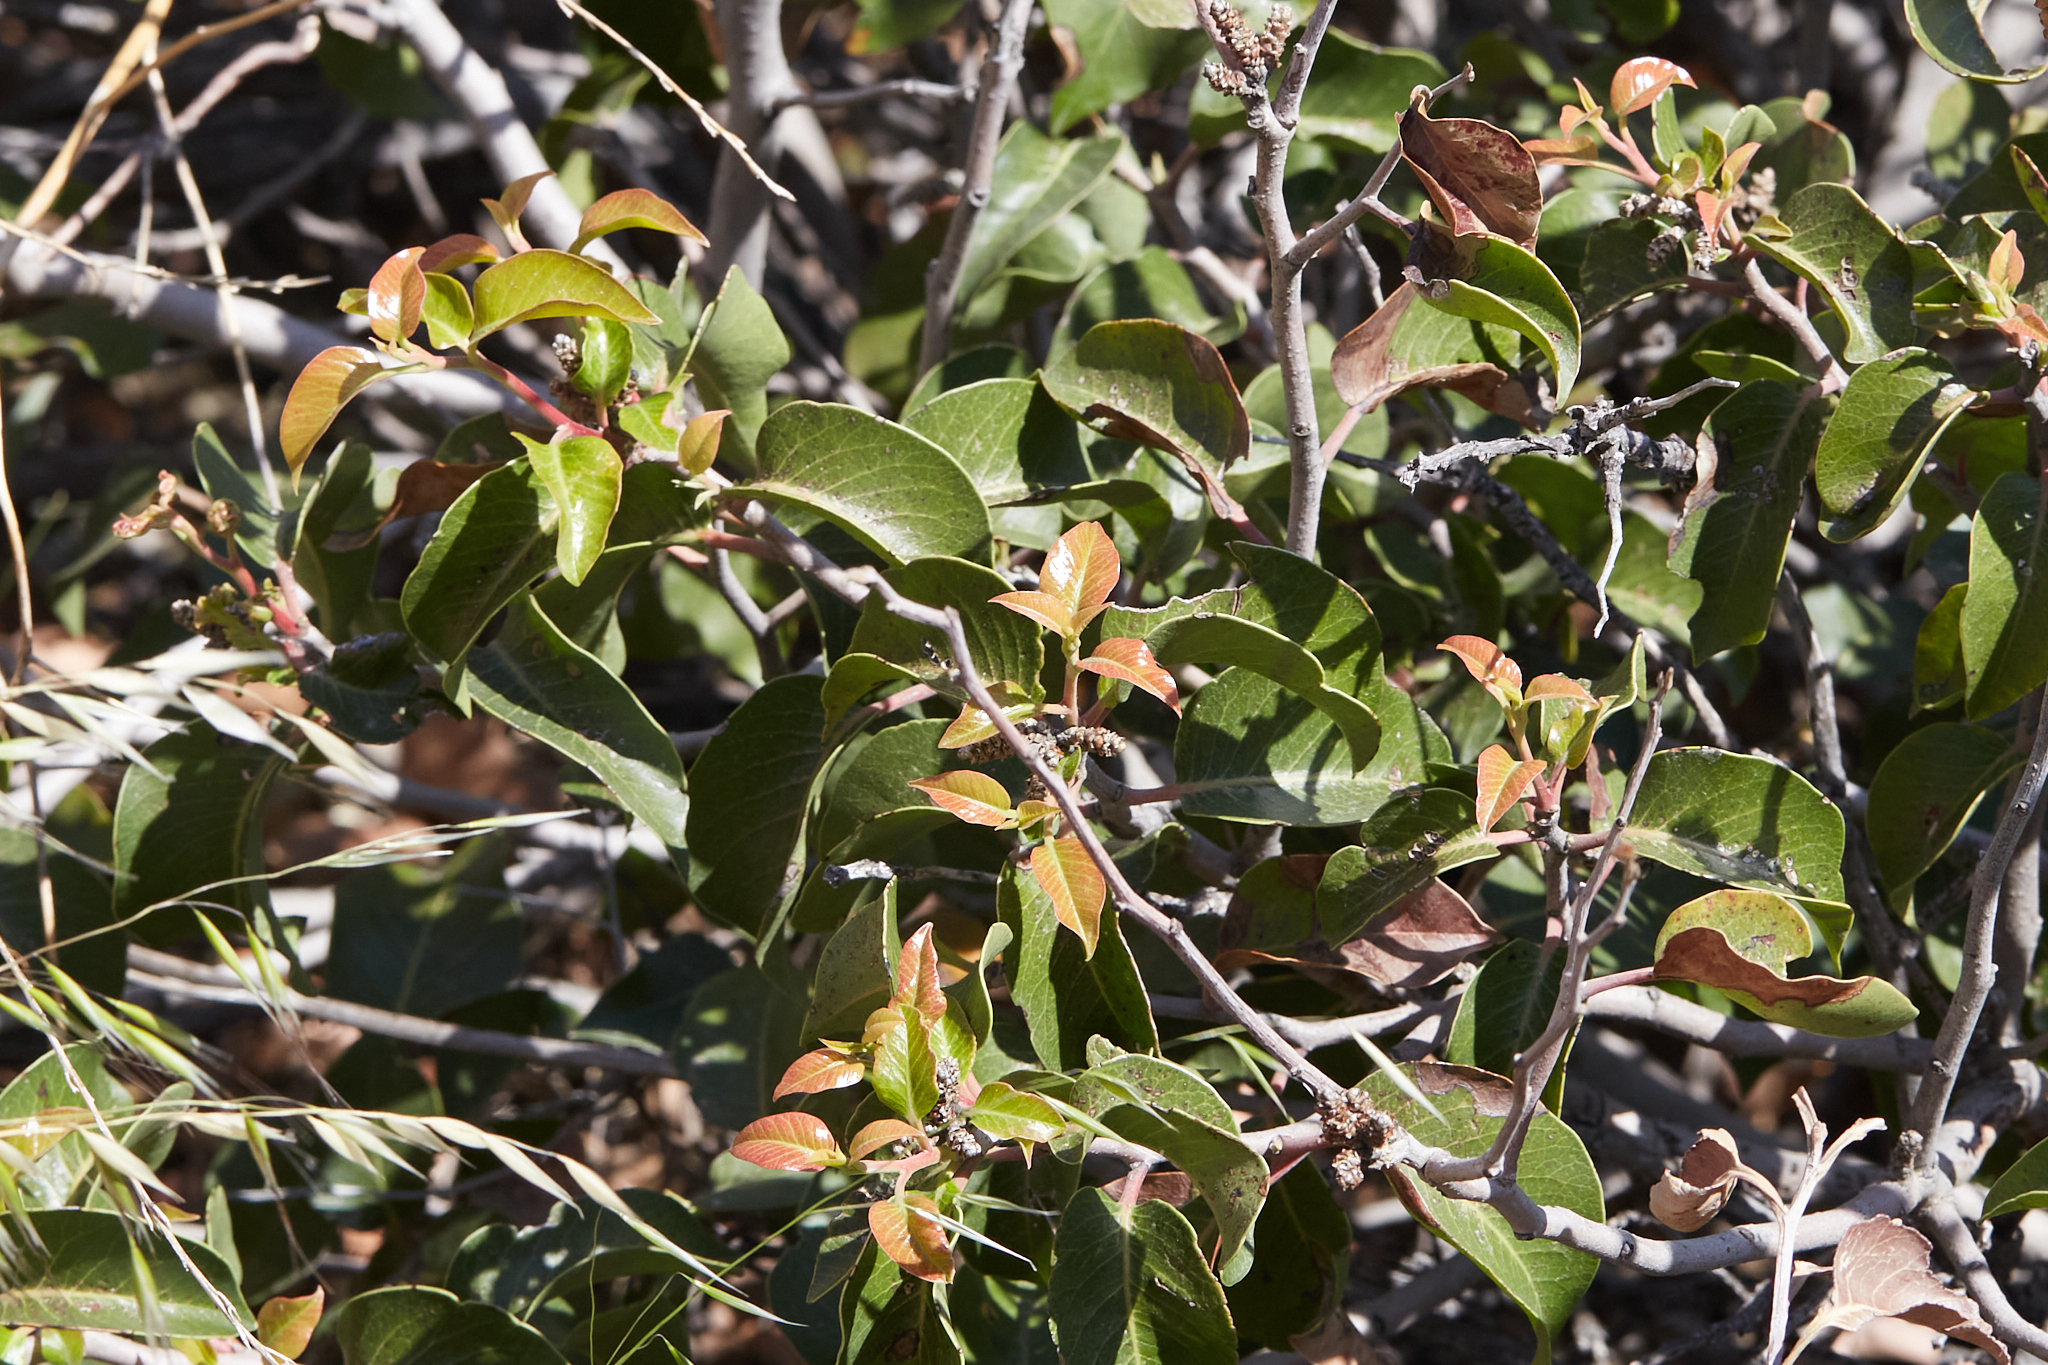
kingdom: Plantae
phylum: Tracheophyta
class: Magnoliopsida
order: Sapindales
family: Anacardiaceae
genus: Rhus
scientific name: Rhus ovata
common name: Sugar sumac
